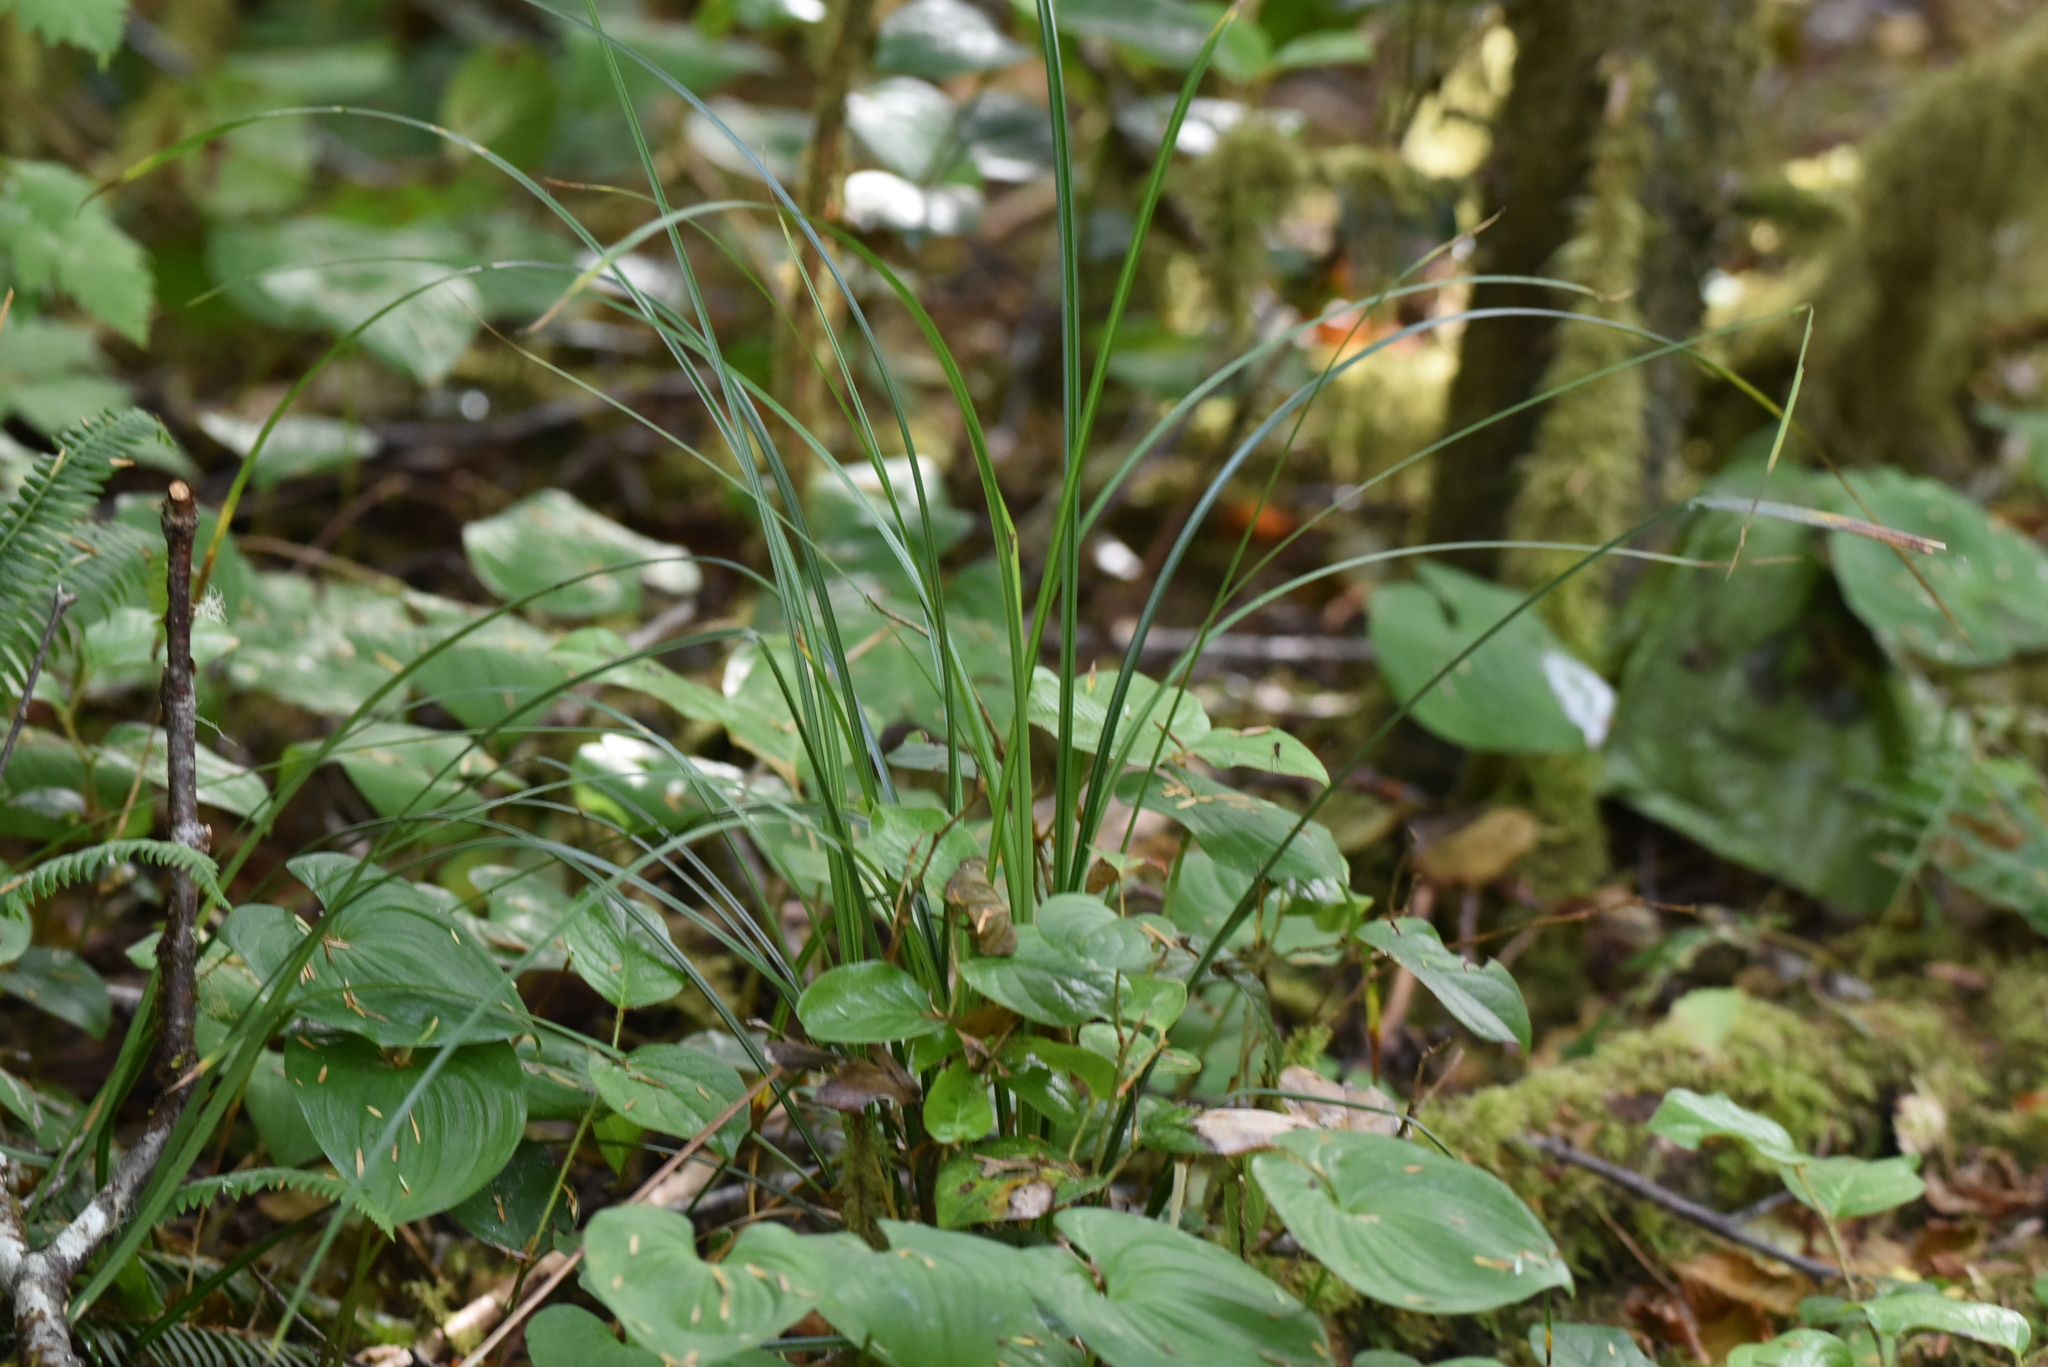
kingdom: Plantae
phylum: Tracheophyta
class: Liliopsida
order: Poales
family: Cyperaceae
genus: Carex
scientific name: Carex obnupta
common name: Slough sedge
